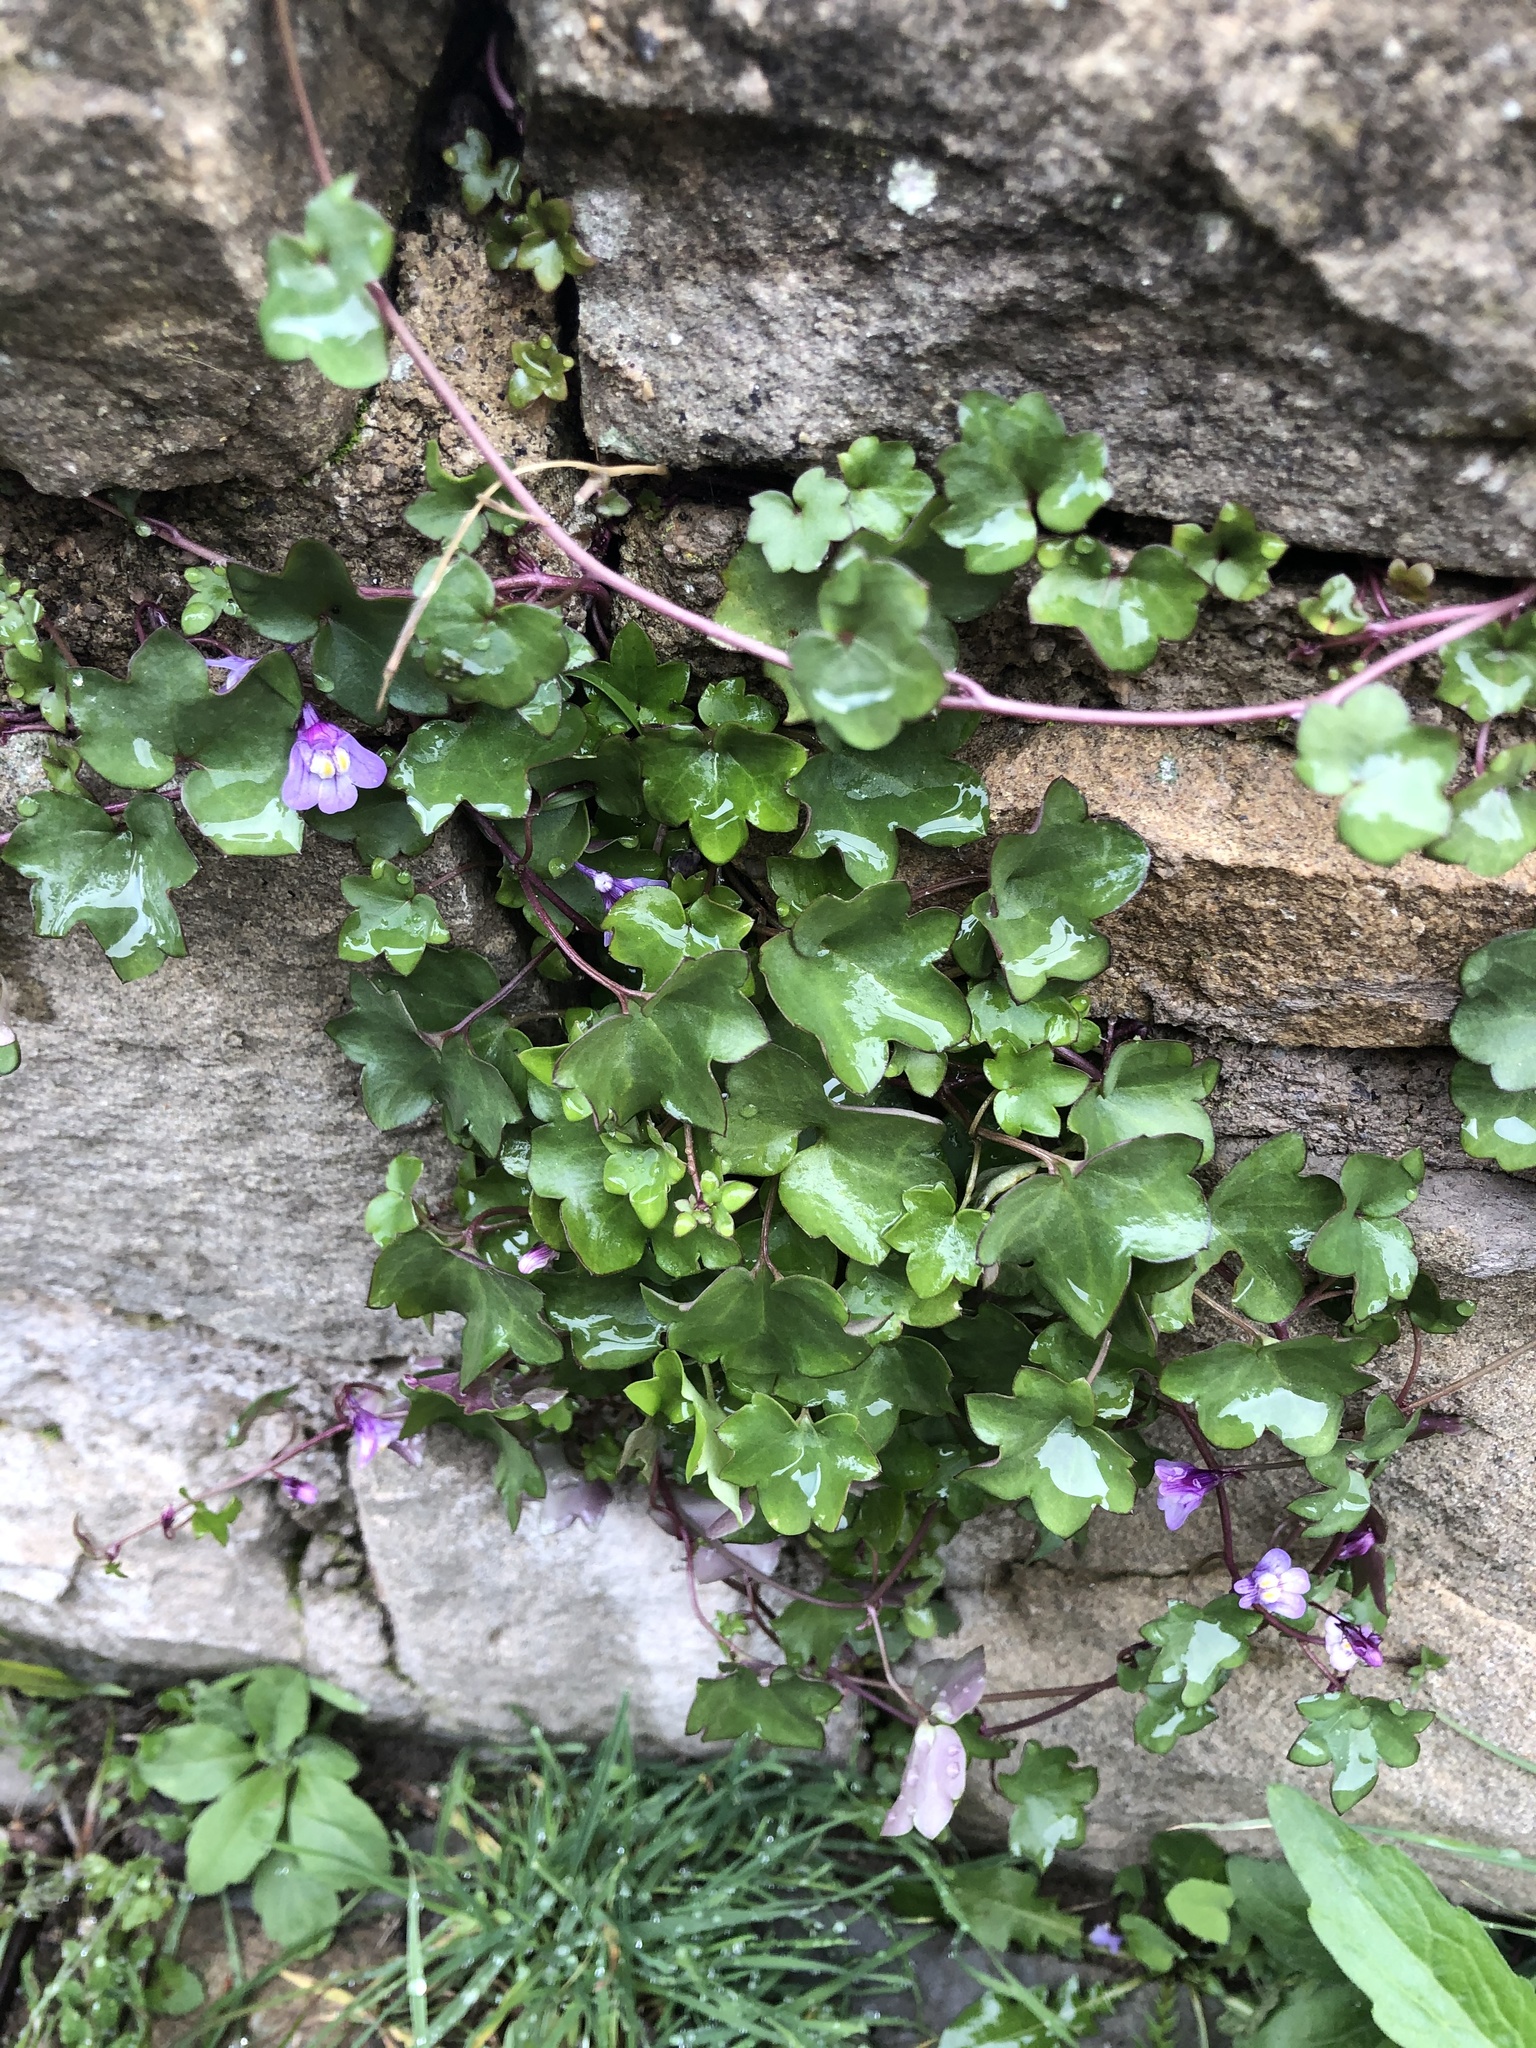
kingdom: Plantae
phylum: Tracheophyta
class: Magnoliopsida
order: Lamiales
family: Plantaginaceae
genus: Cymbalaria
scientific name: Cymbalaria muralis
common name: Ivy-leaved toadflax
